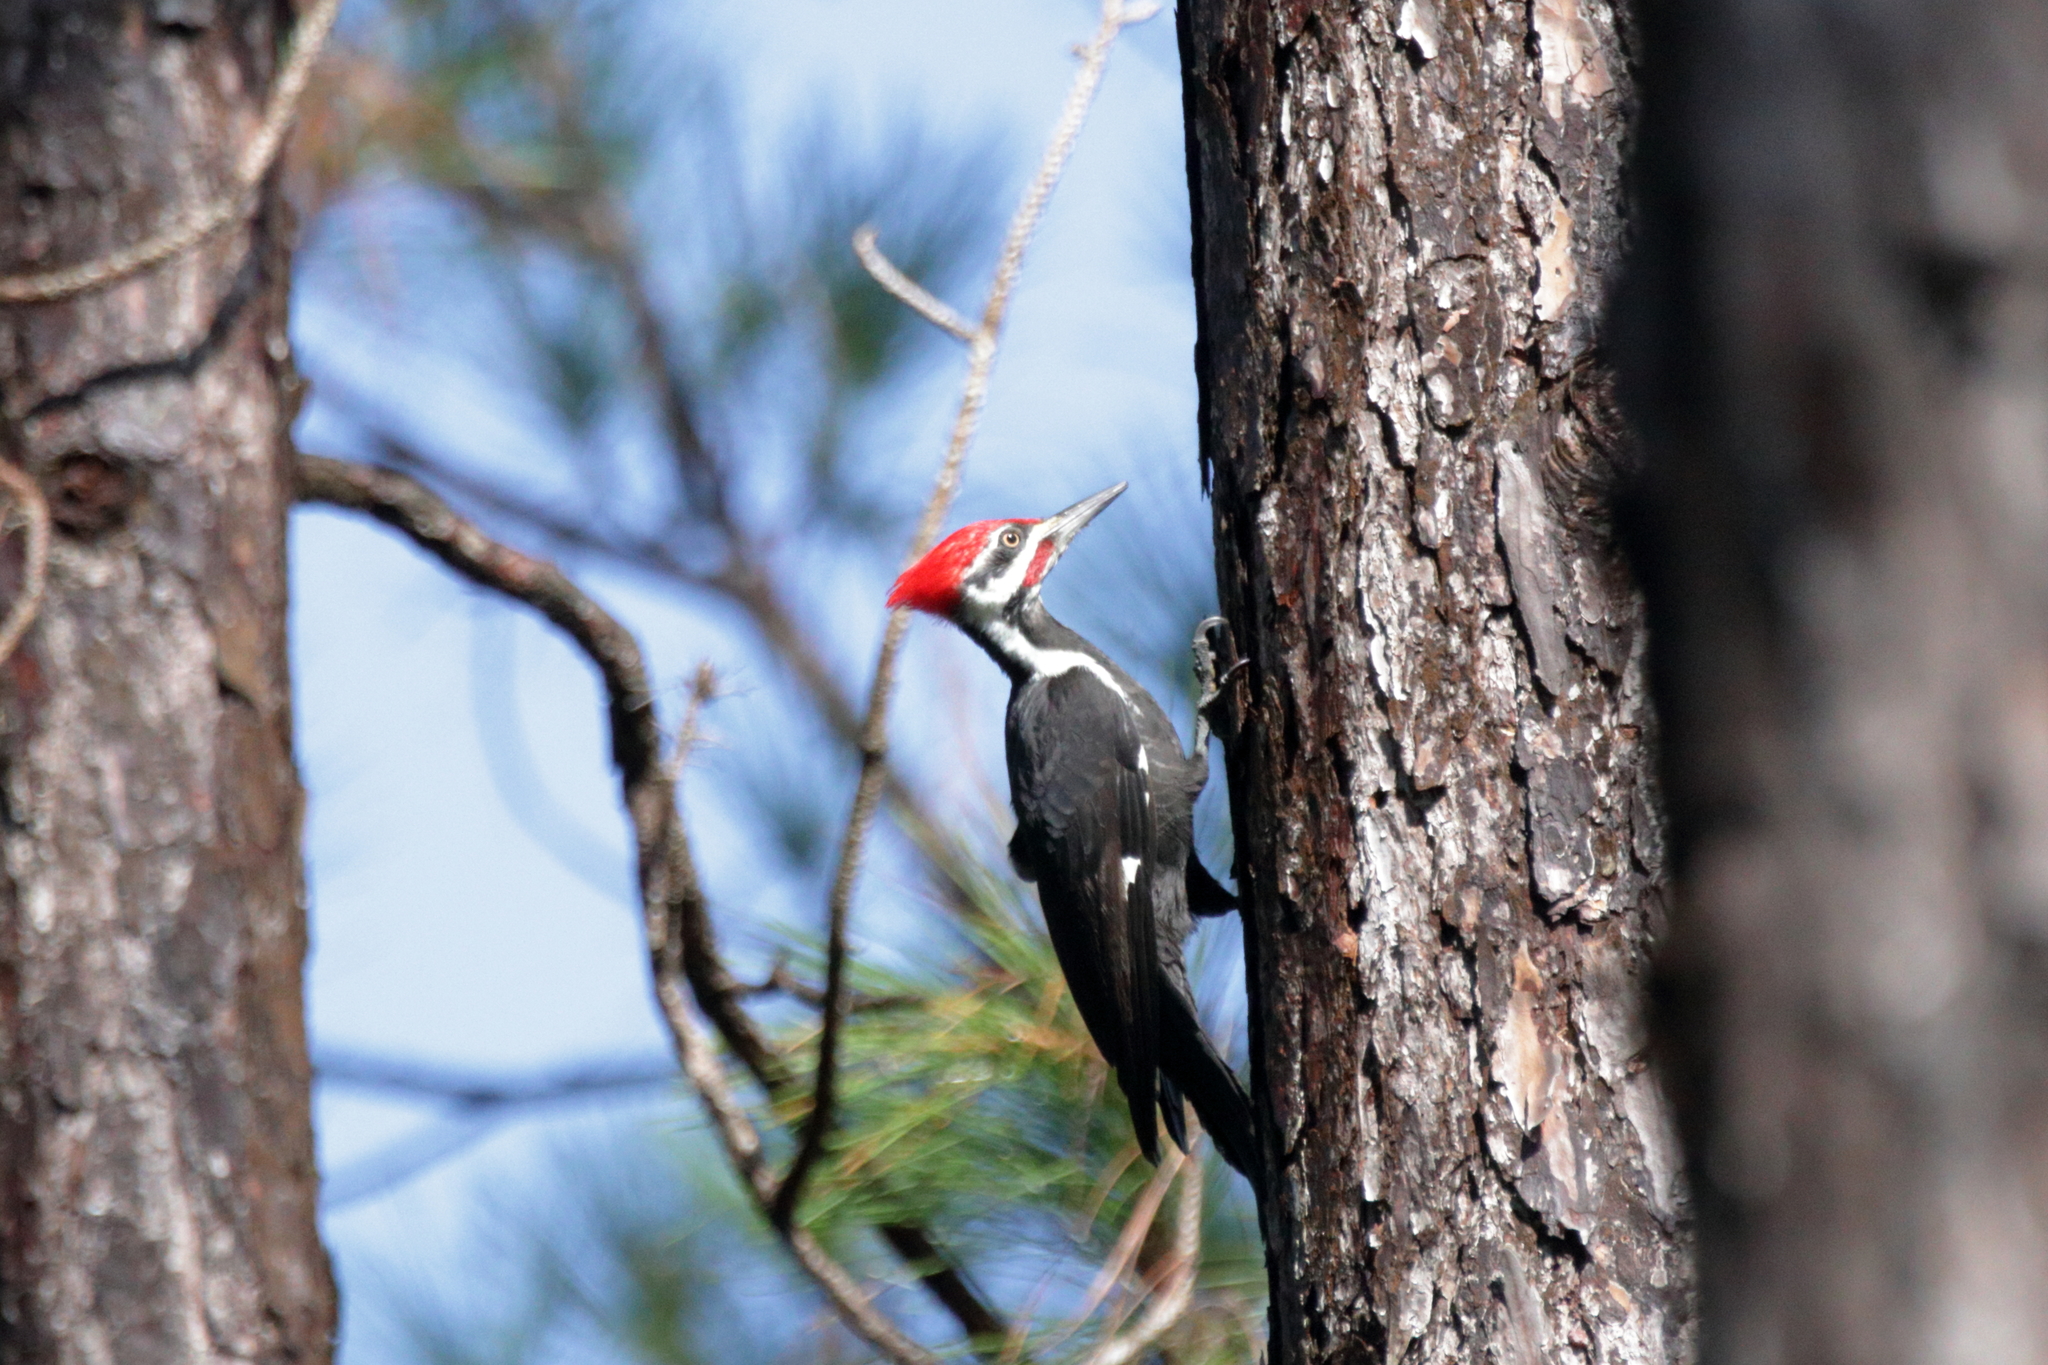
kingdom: Animalia
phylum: Chordata
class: Aves
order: Piciformes
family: Picidae
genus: Dryocopus
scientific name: Dryocopus pileatus
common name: Pileated woodpecker
